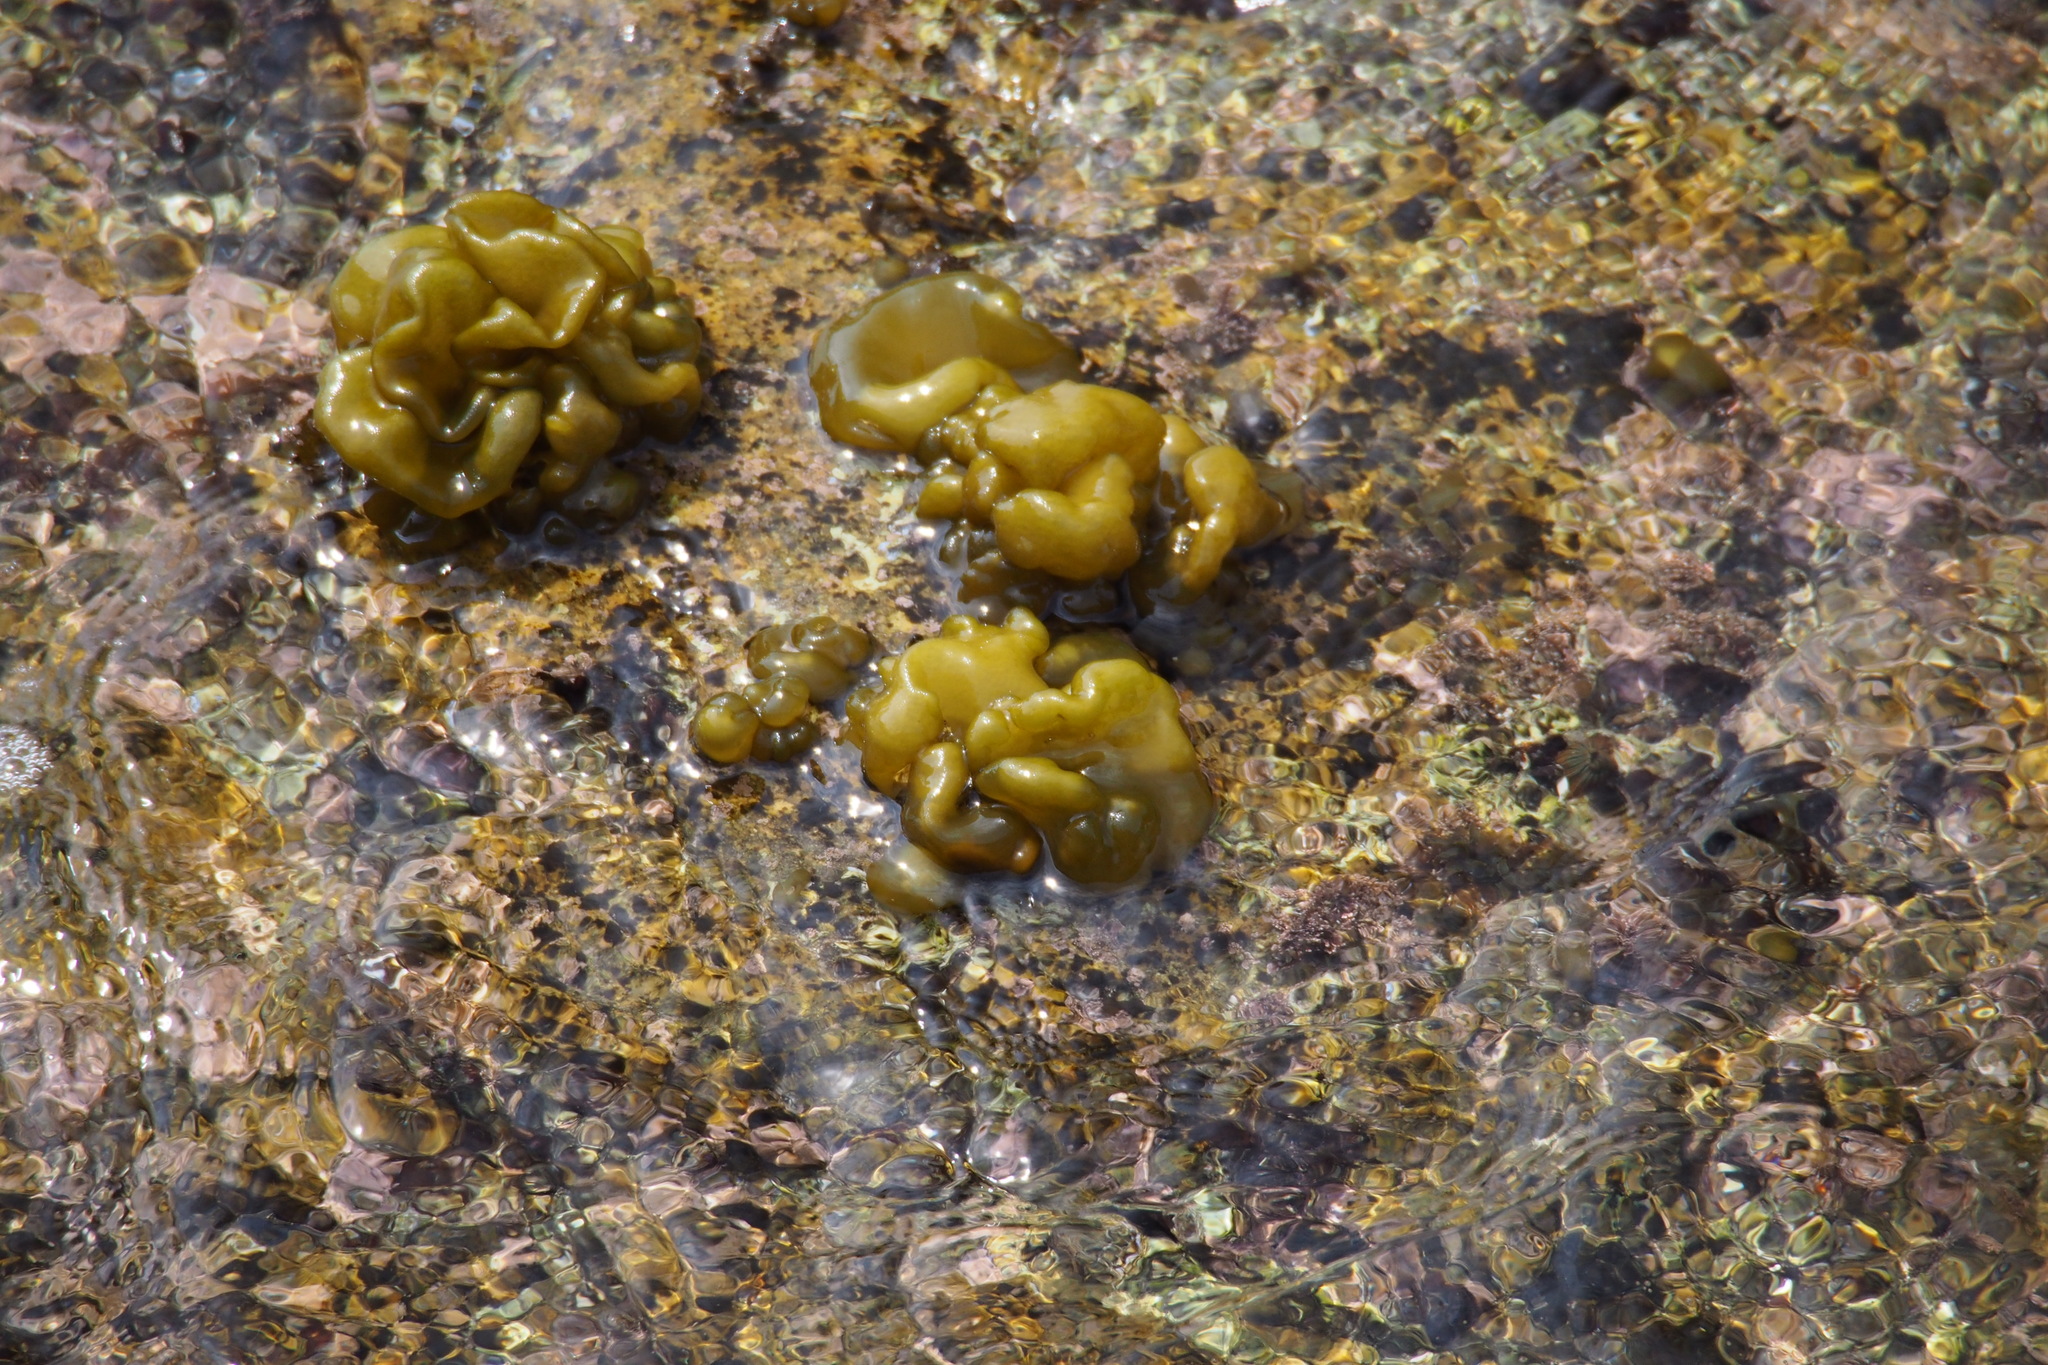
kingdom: Chromista
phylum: Ochrophyta
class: Phaeophyceae
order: Scytosiphonales
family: Scytosiphonaceae
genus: Colpomenia
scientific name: Colpomenia sinuosa
